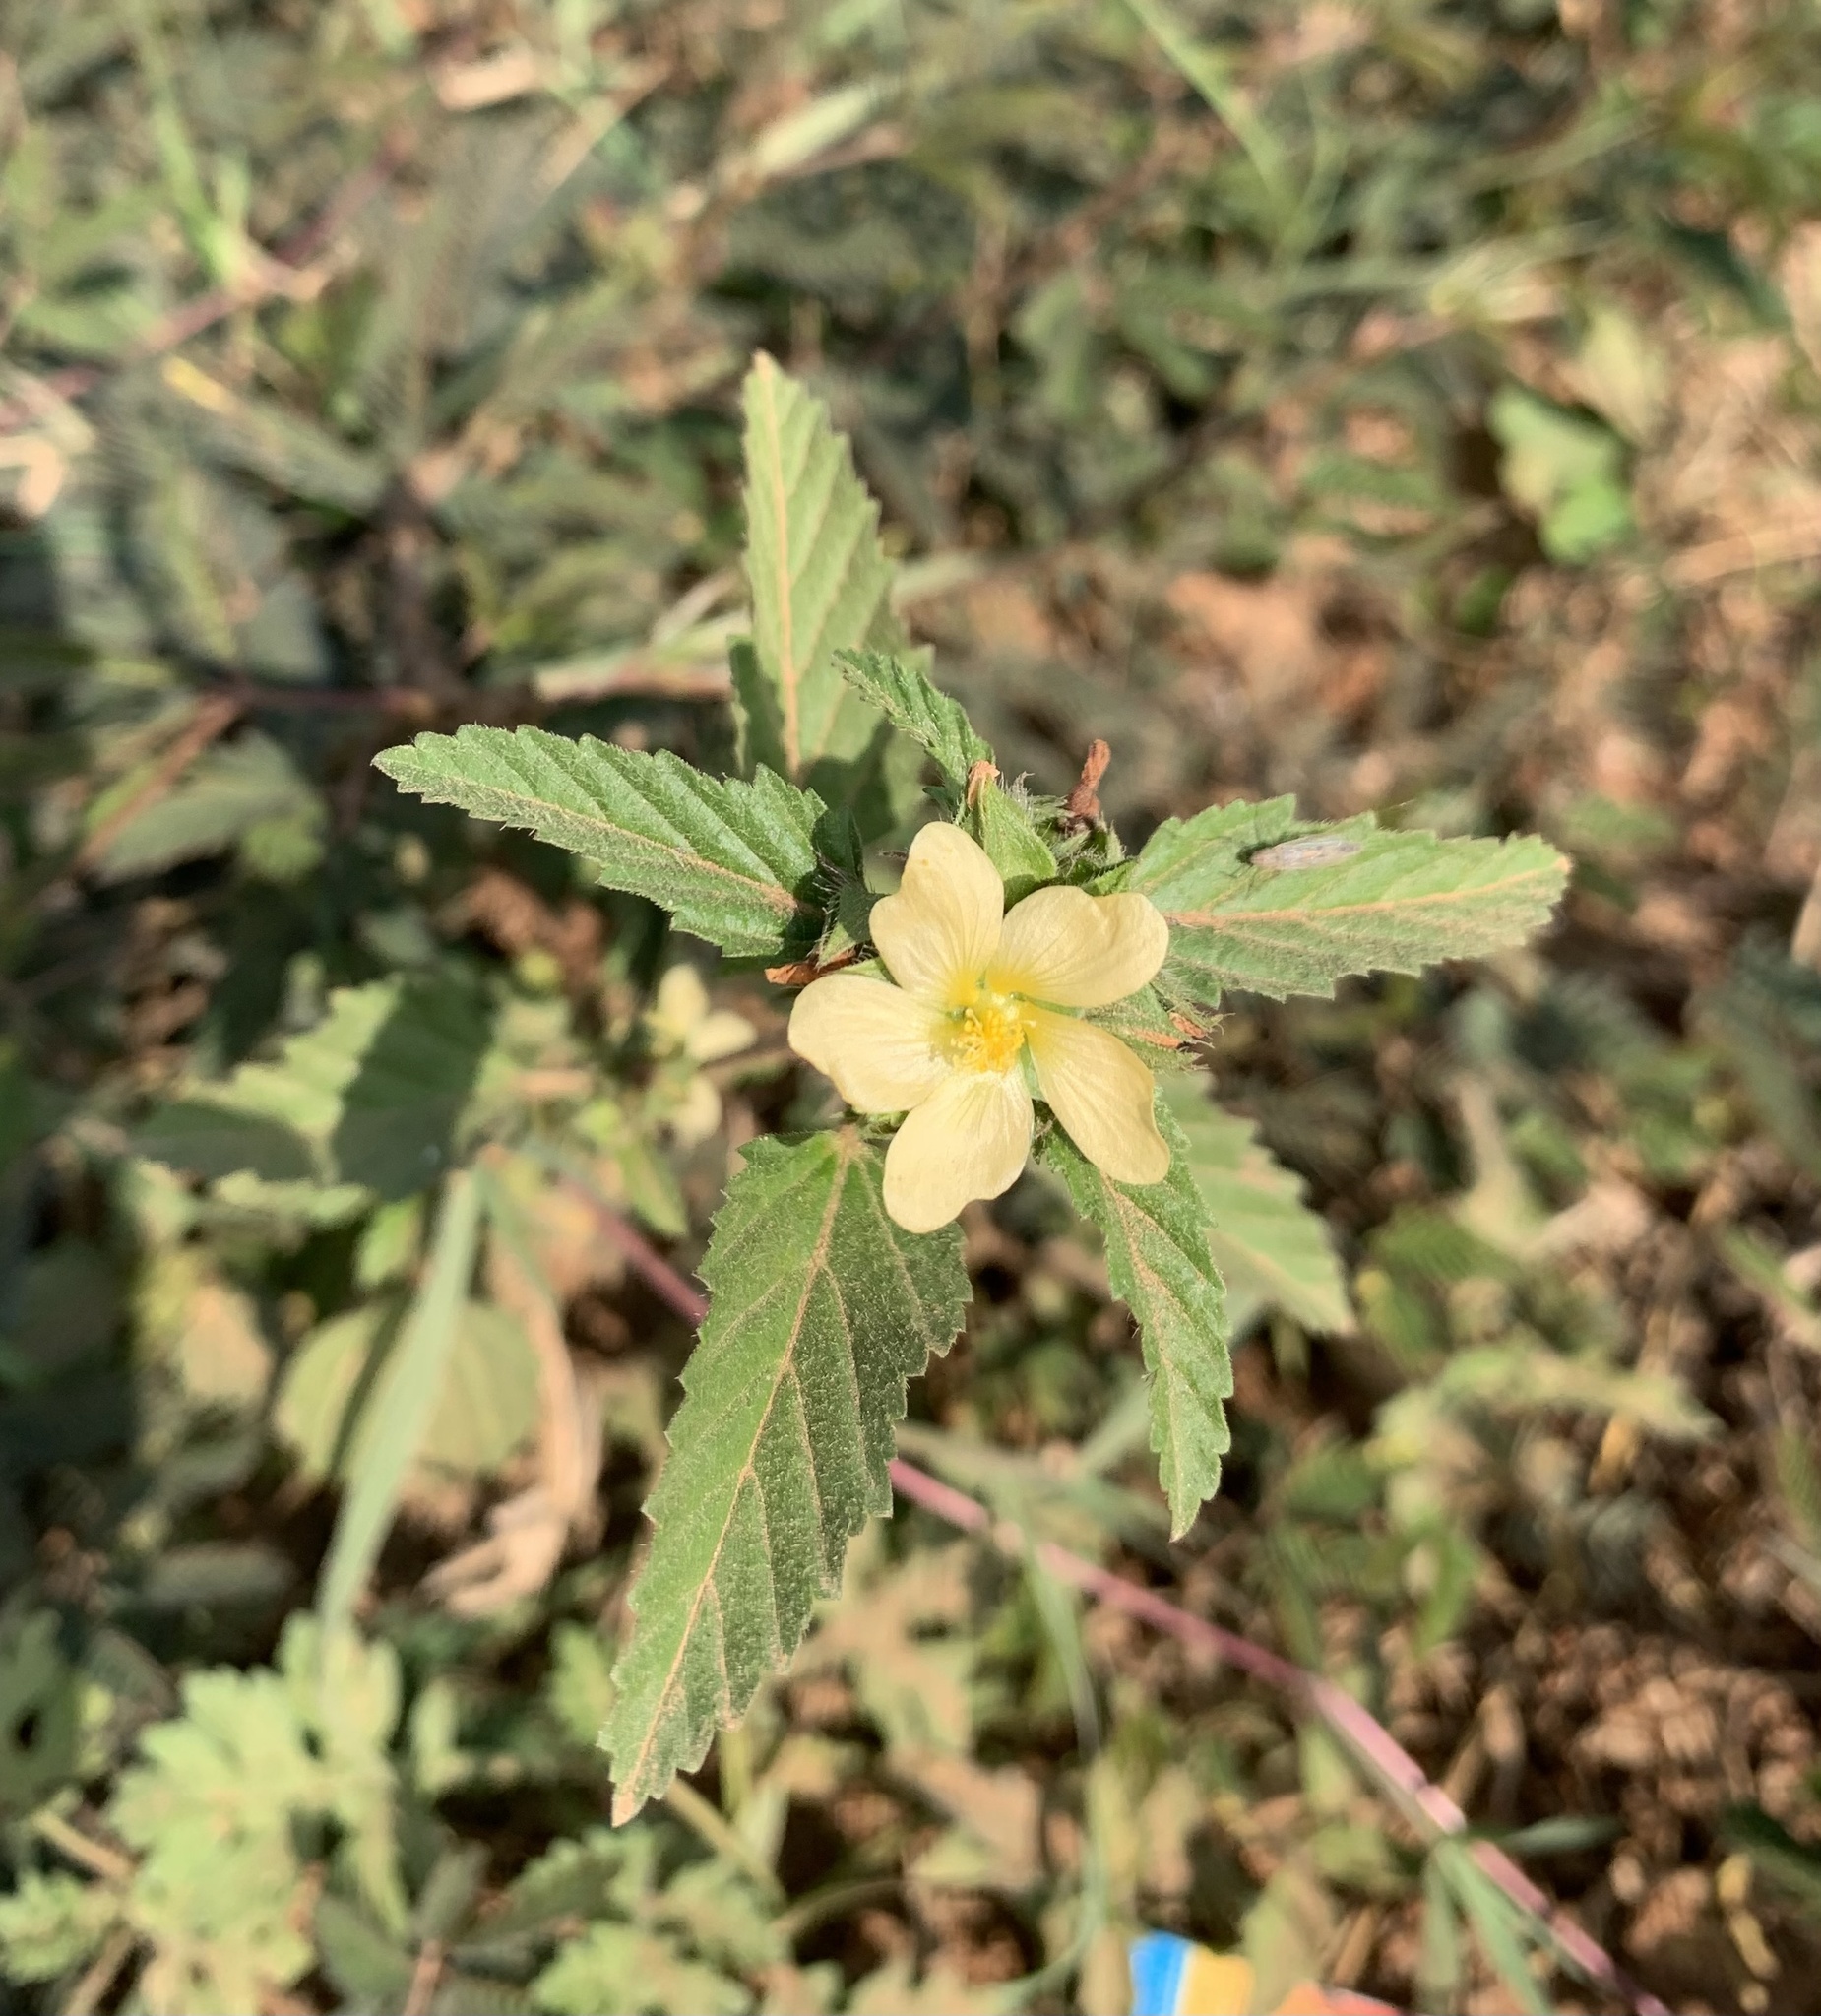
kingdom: Plantae
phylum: Tracheophyta
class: Magnoliopsida
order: Malvales
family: Malvaceae
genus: Malvastrum
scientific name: Malvastrum coromandelianum
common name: Threelobe false mallow
